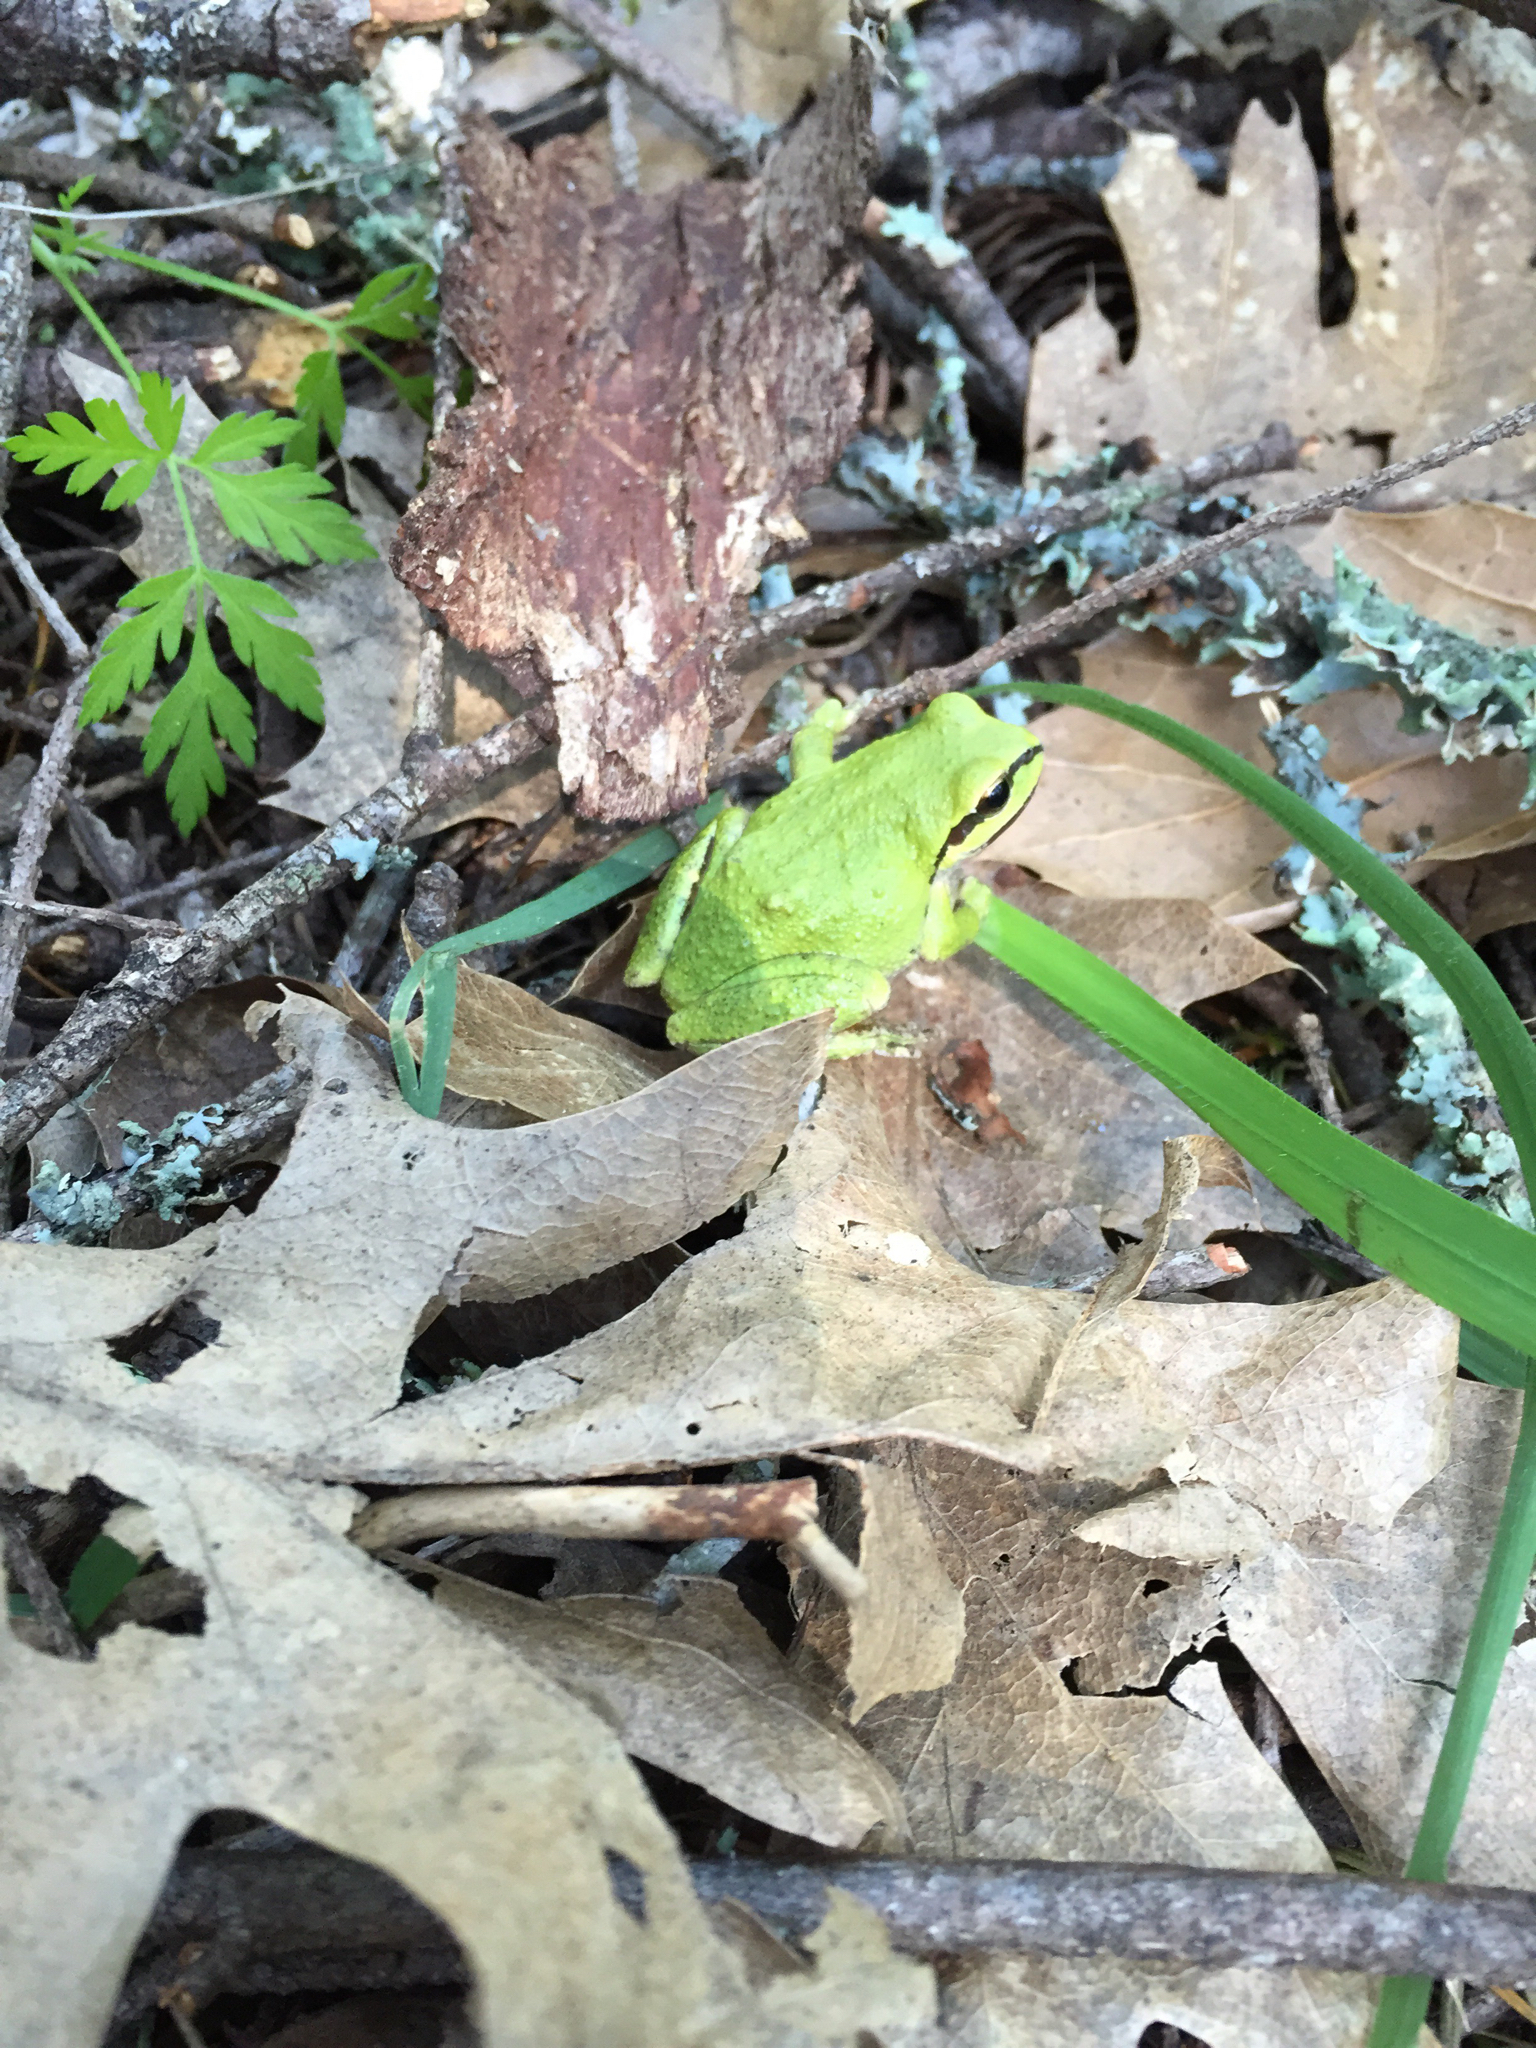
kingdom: Animalia
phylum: Chordata
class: Amphibia
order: Anura
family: Hylidae
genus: Pseudacris
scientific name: Pseudacris regilla
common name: Pacific chorus frog
